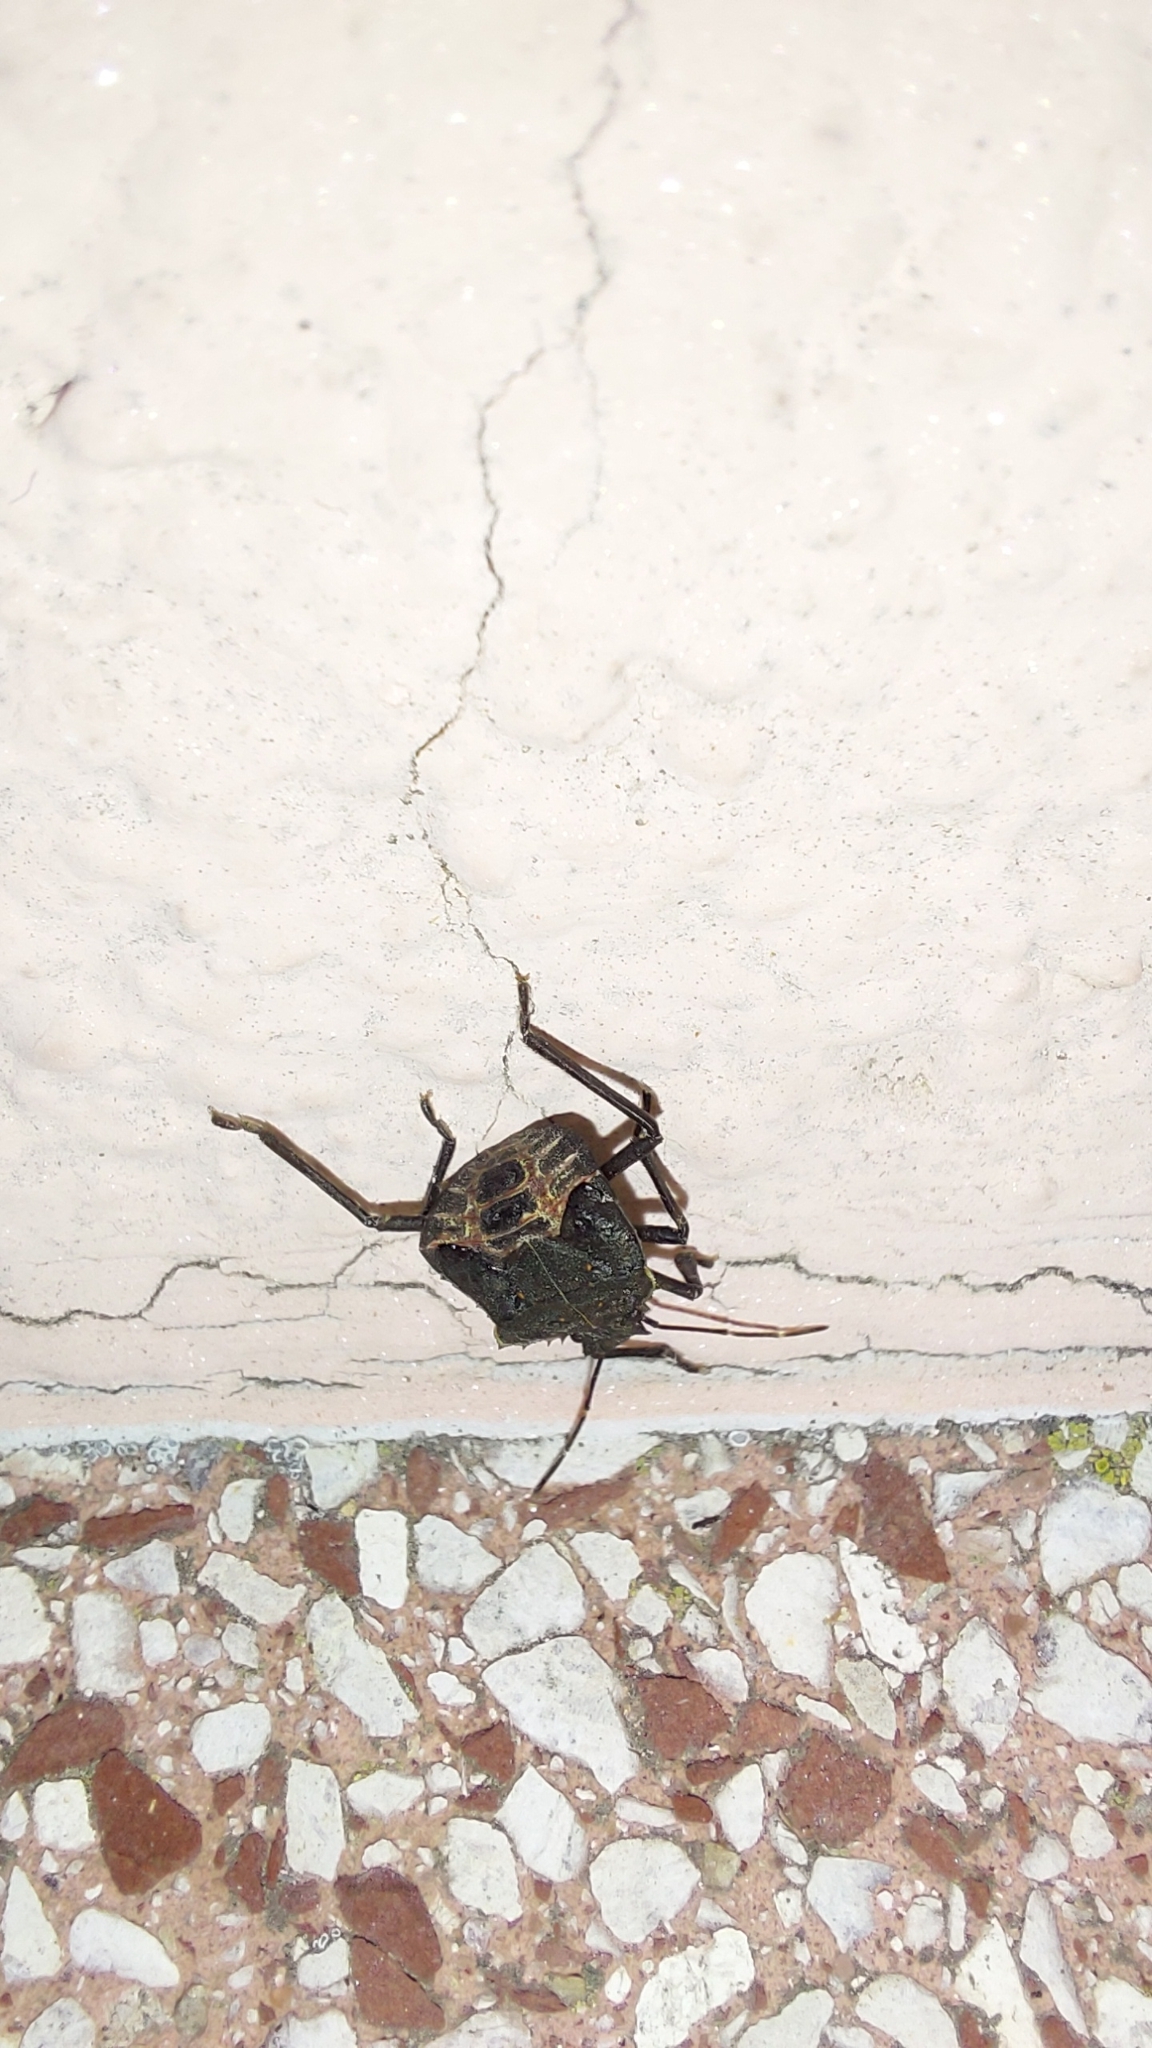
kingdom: Animalia
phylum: Arthropoda
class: Insecta
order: Hemiptera
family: Pentatomidae
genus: Halyomorpha
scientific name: Halyomorpha halys
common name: Brown marmorated stink bug
